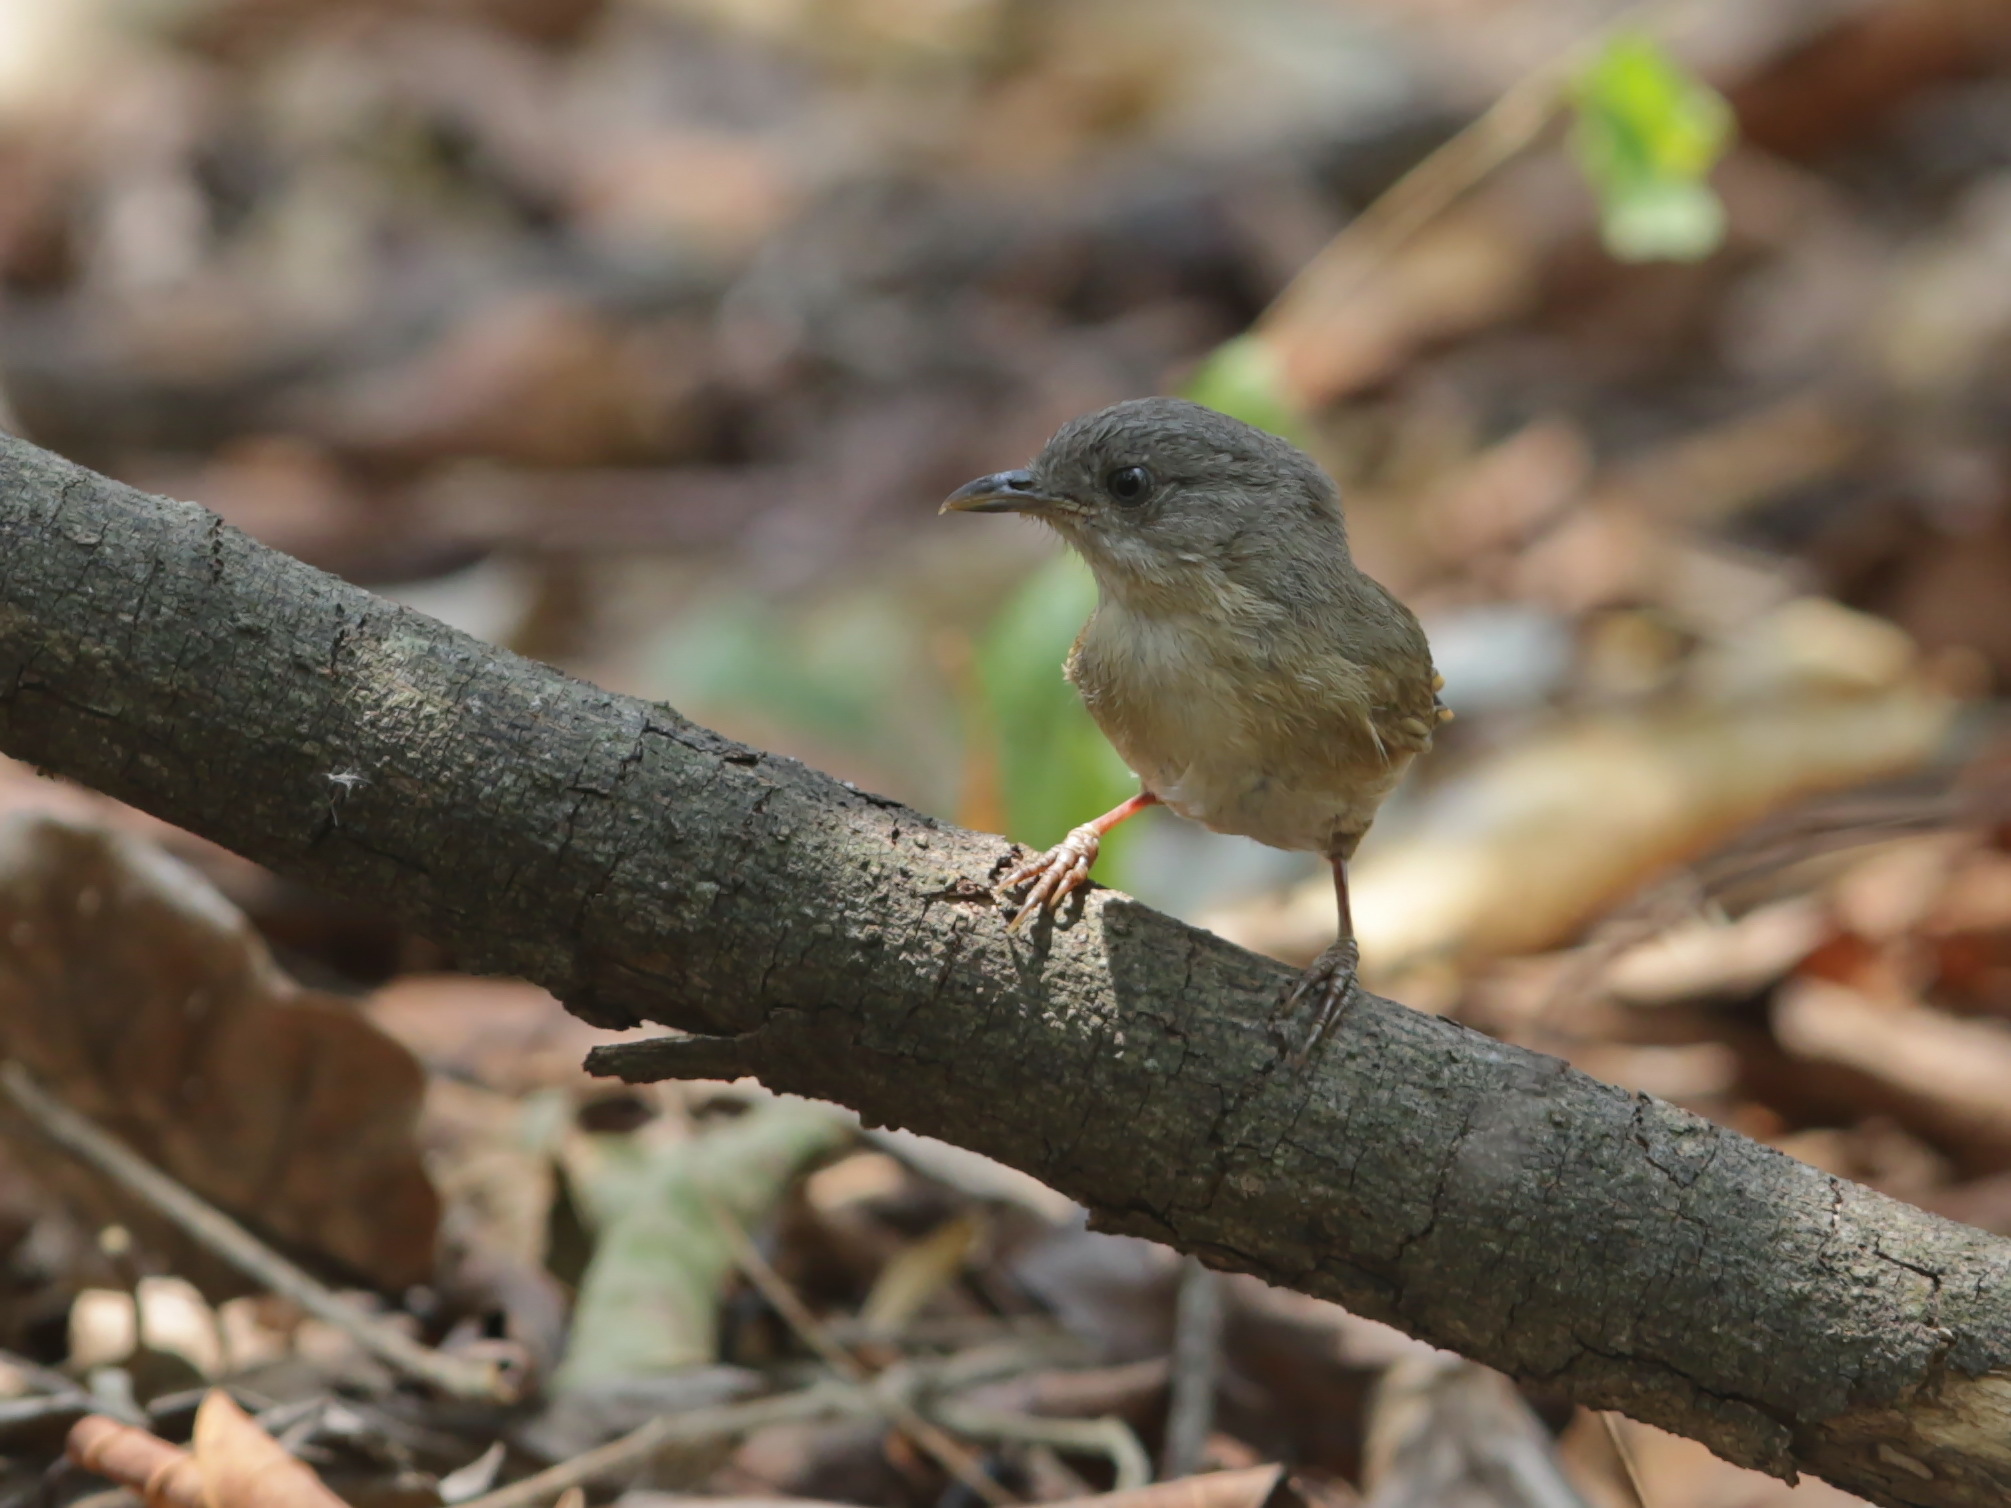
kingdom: Animalia
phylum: Chordata
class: Aves
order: Passeriformes
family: Pellorneidae
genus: Alcippe
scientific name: Alcippe poioicephala
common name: Brown-cheeked fulvetta
